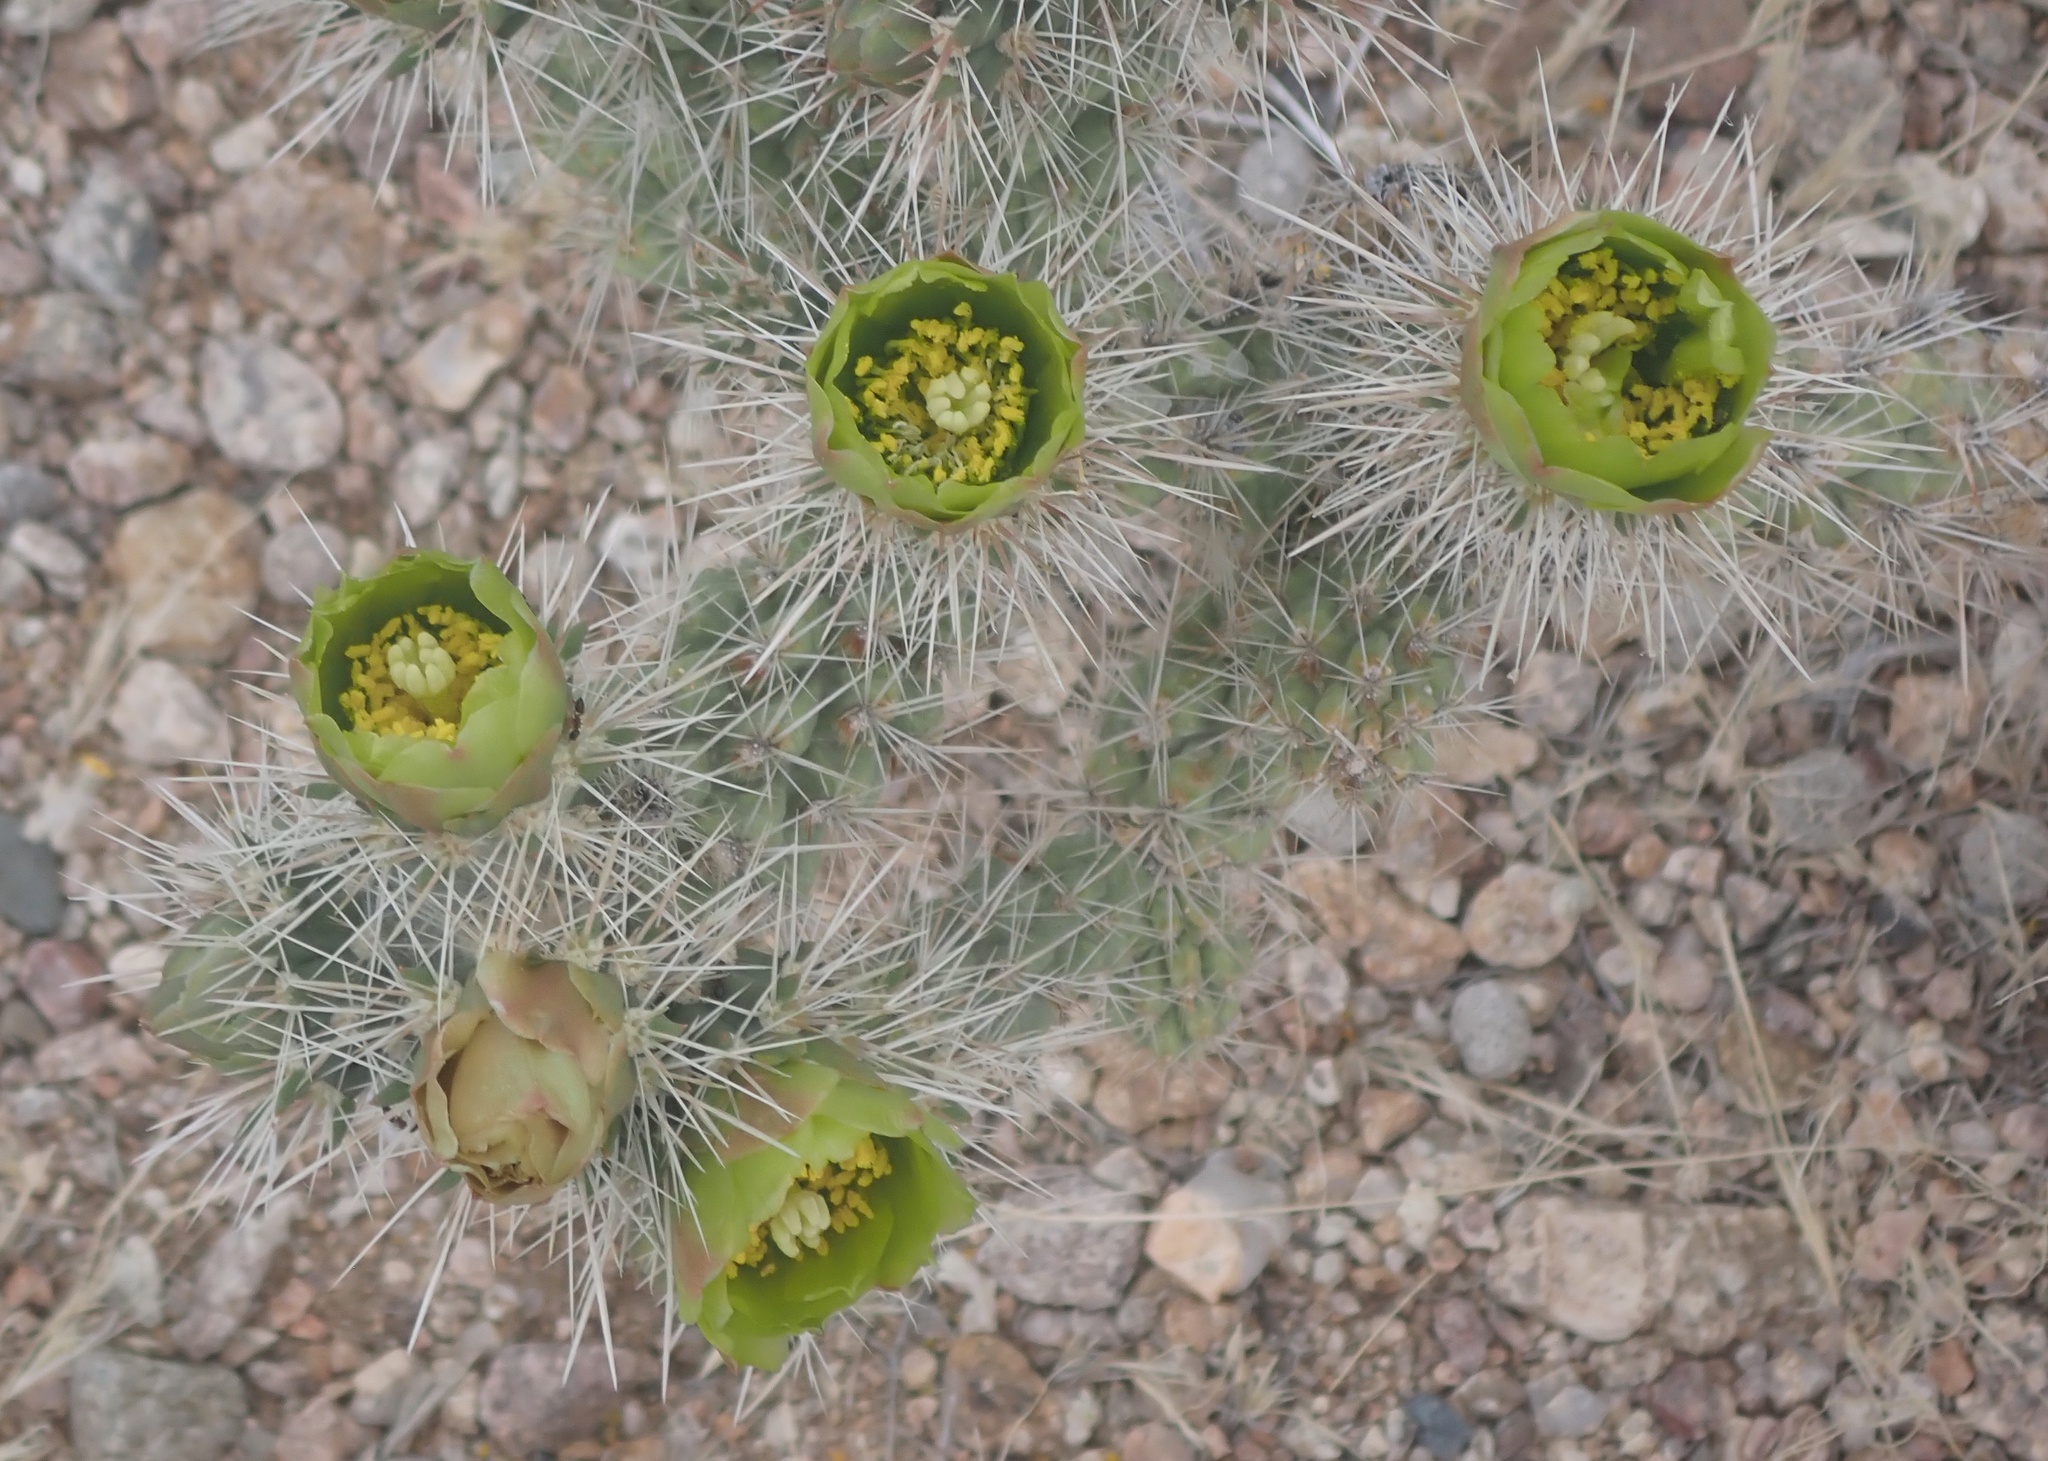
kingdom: Plantae
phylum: Tracheophyta
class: Magnoliopsida
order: Caryophyllales
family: Cactaceae
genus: Cylindropuntia
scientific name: Cylindropuntia echinocarpa
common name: Ground cholla
